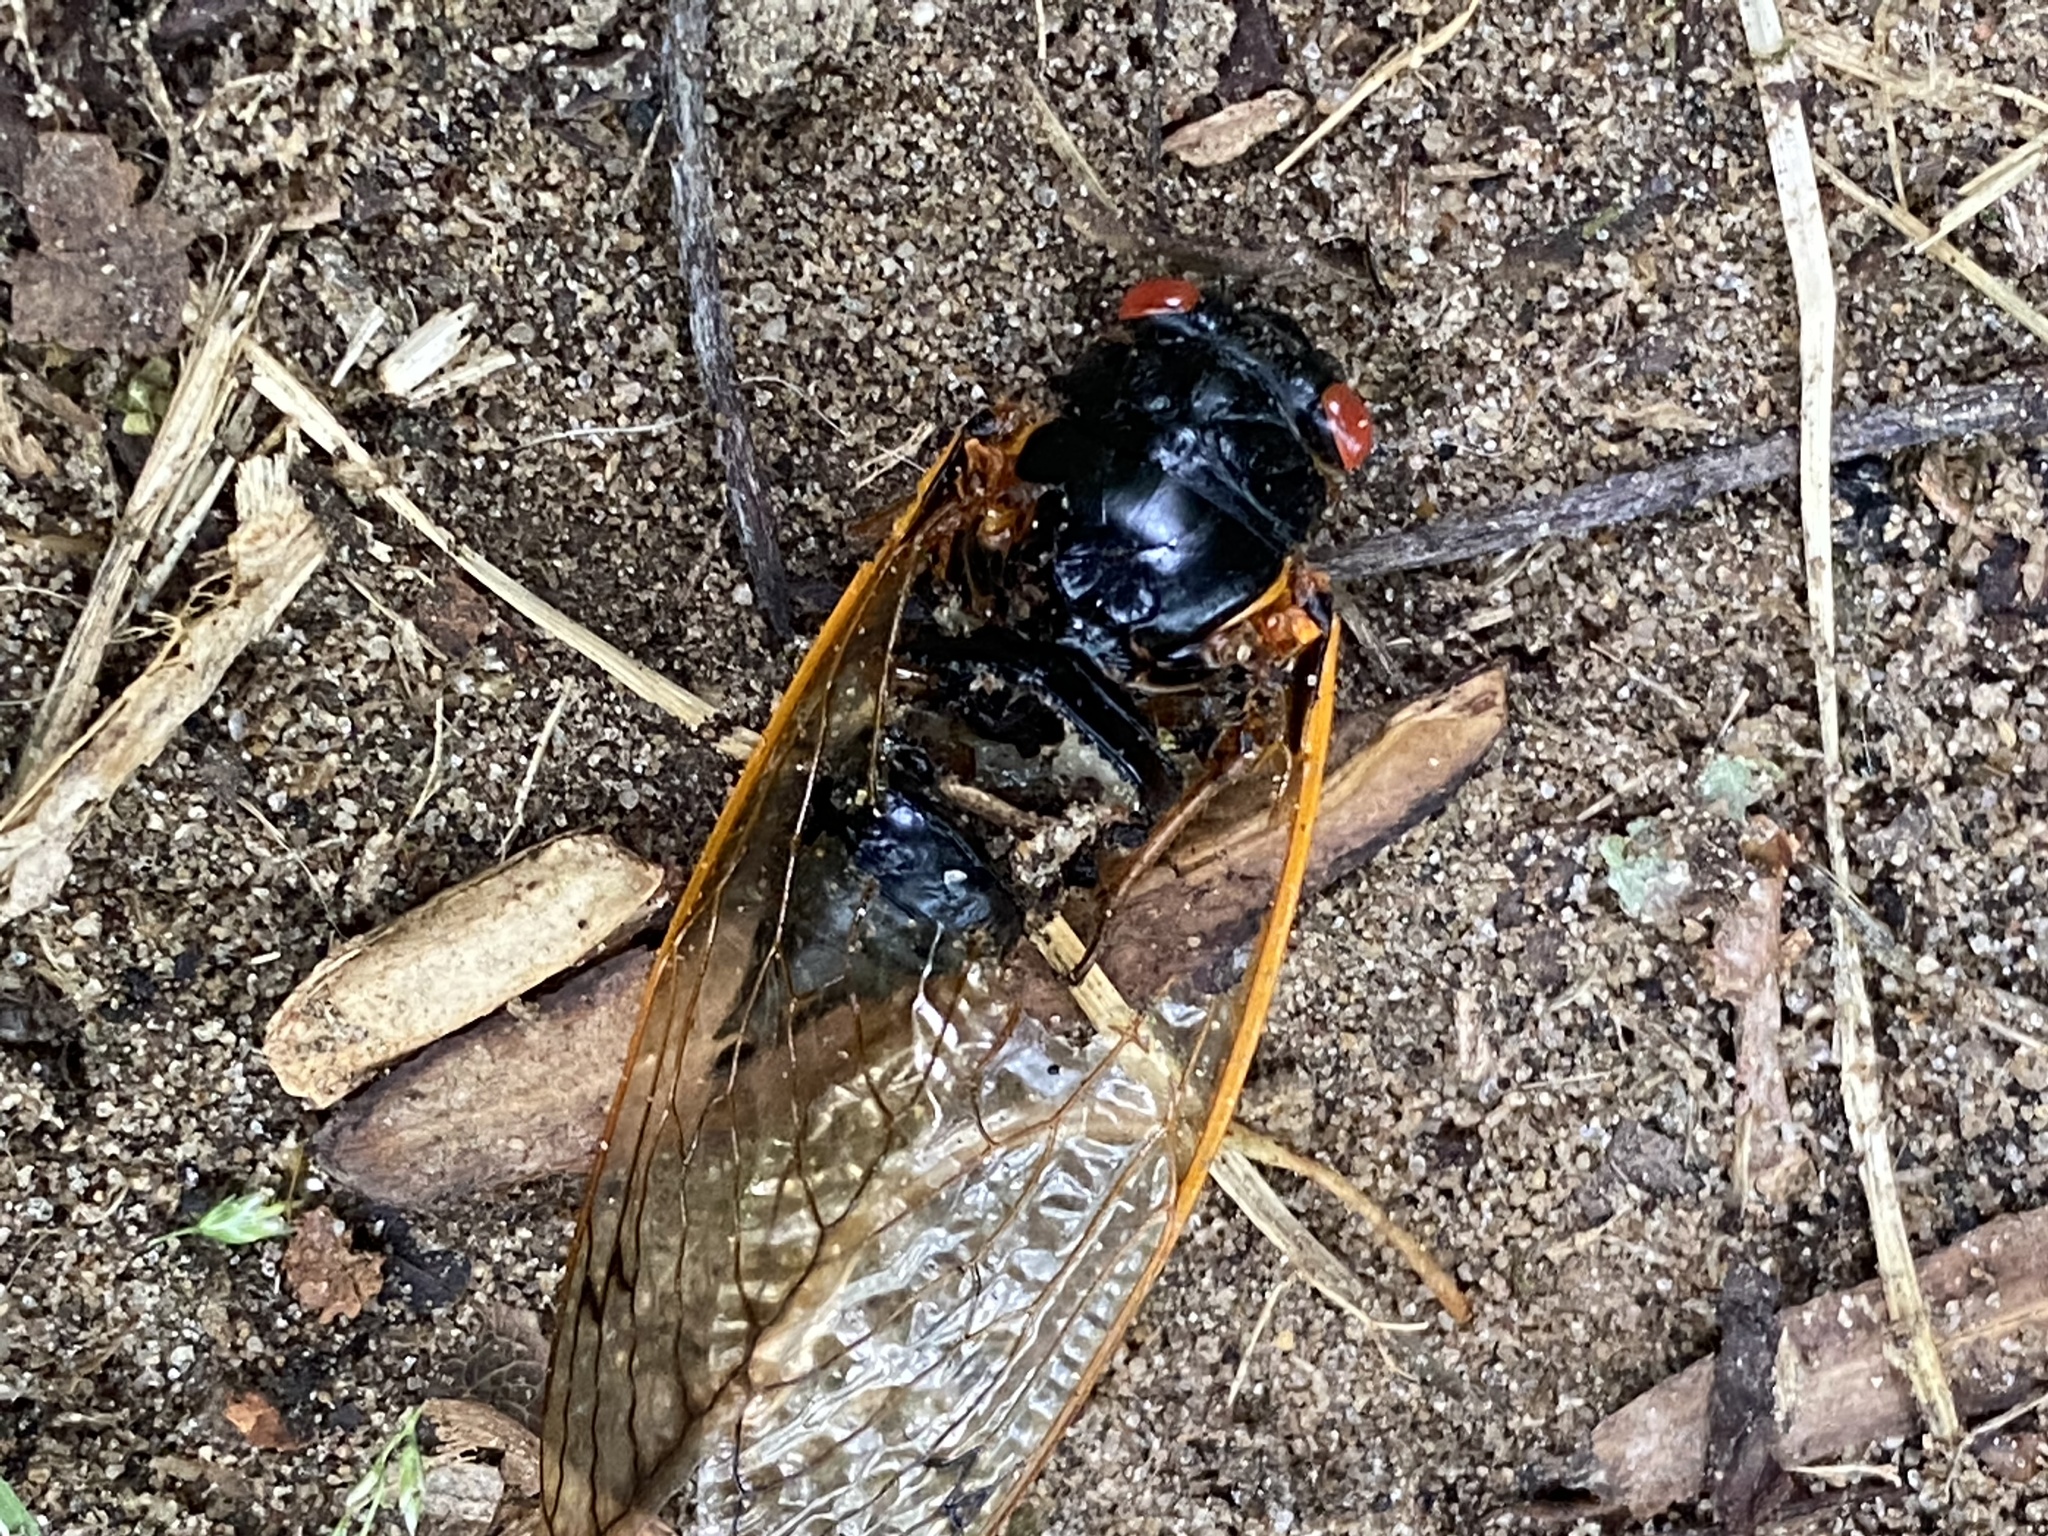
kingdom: Animalia
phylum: Arthropoda
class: Insecta
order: Hemiptera
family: Cicadidae
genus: Magicicada
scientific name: Magicicada
